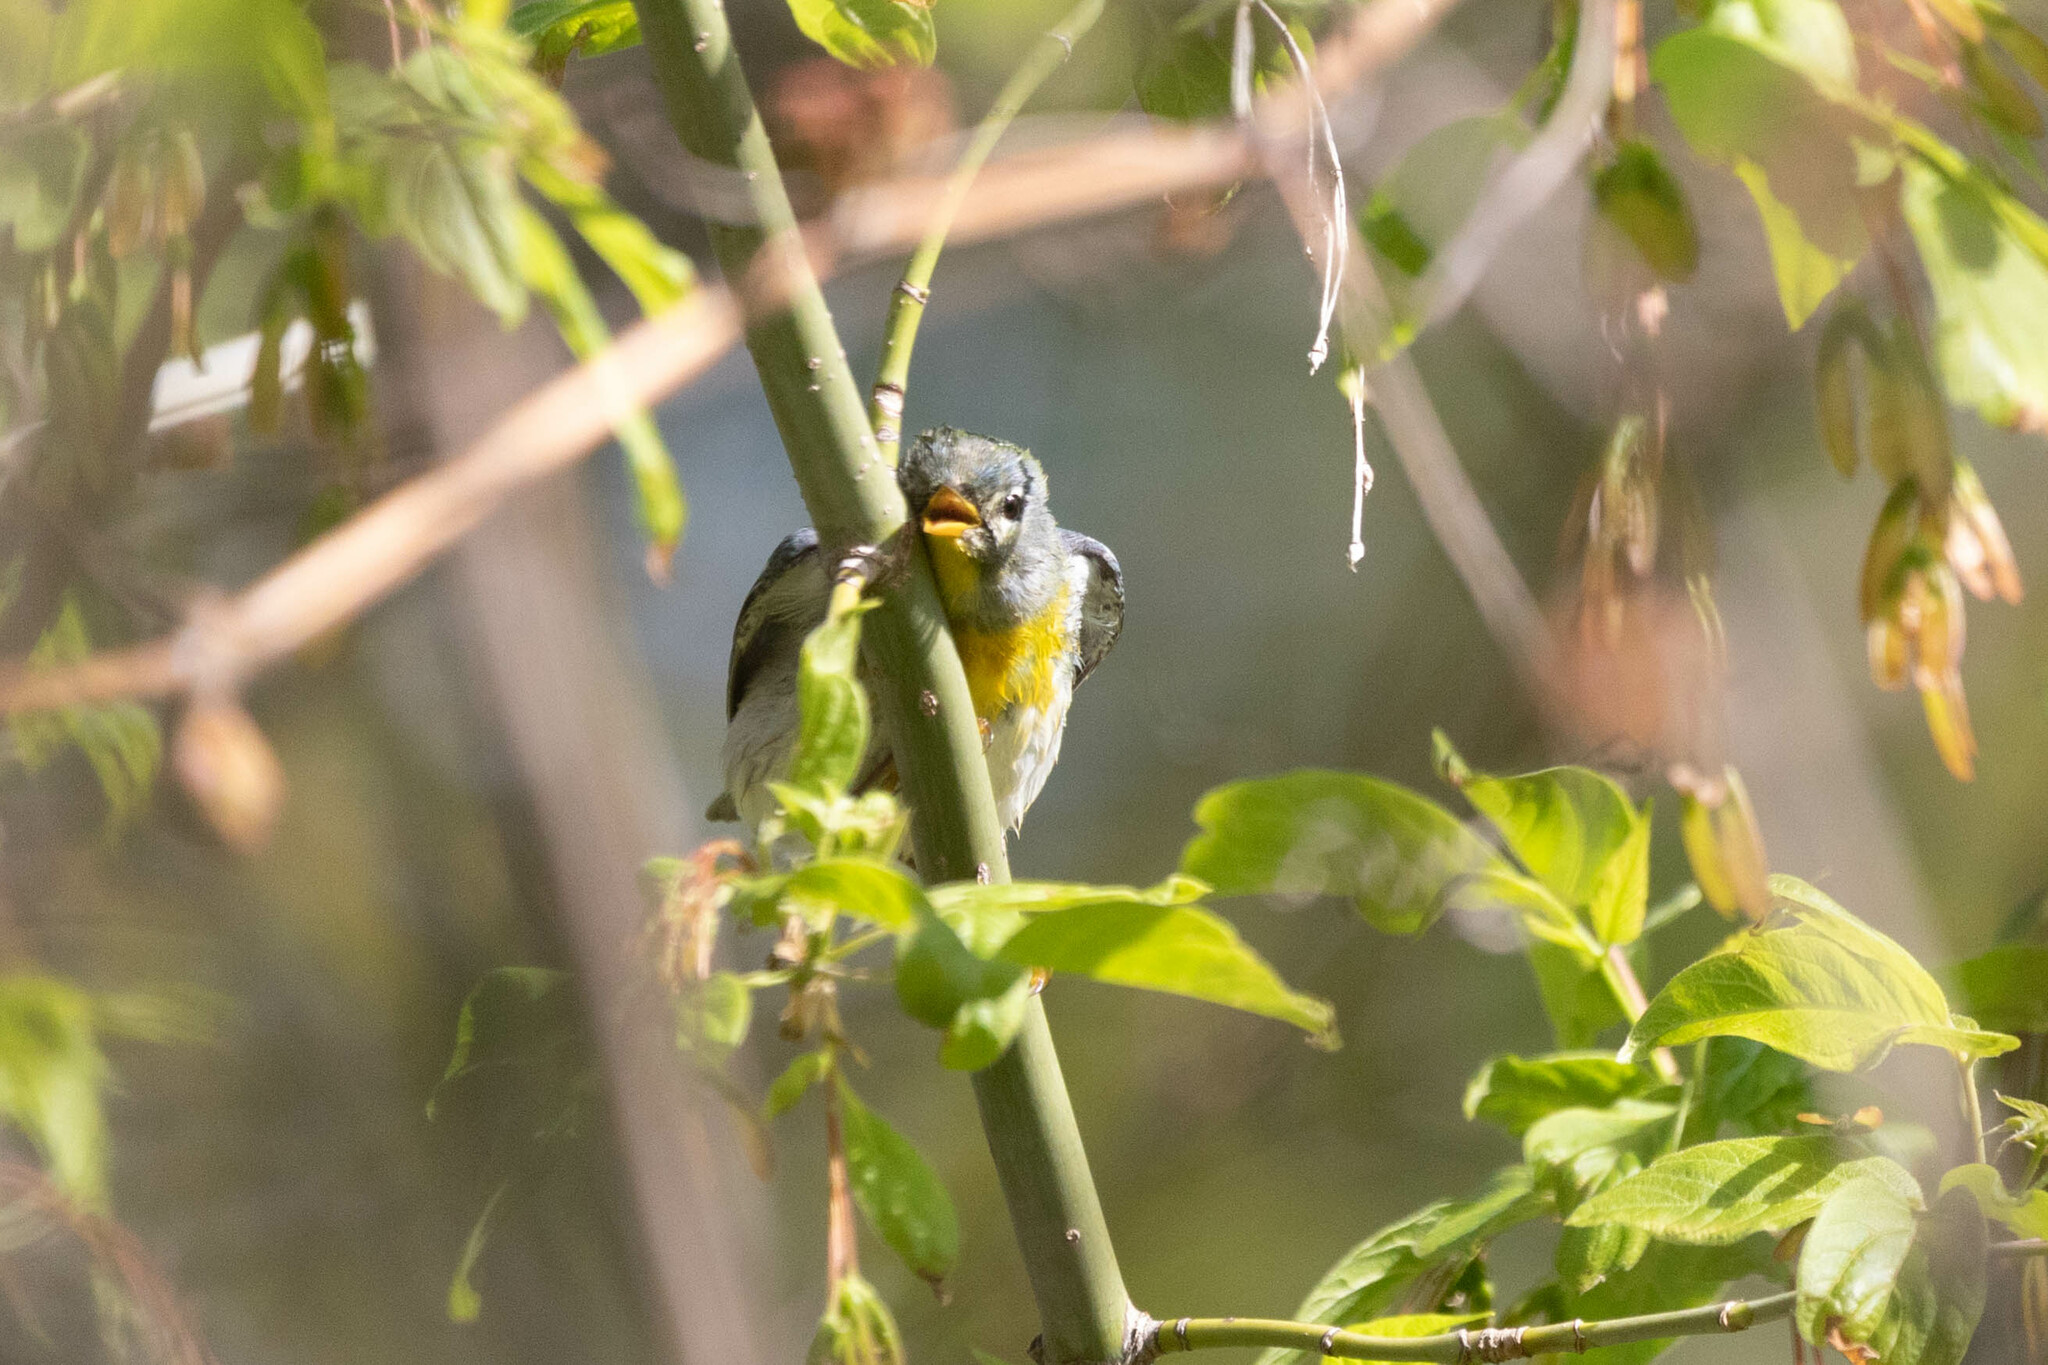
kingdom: Animalia
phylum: Chordata
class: Aves
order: Passeriformes
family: Parulidae
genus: Setophaga
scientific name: Setophaga americana
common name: Northern parula
